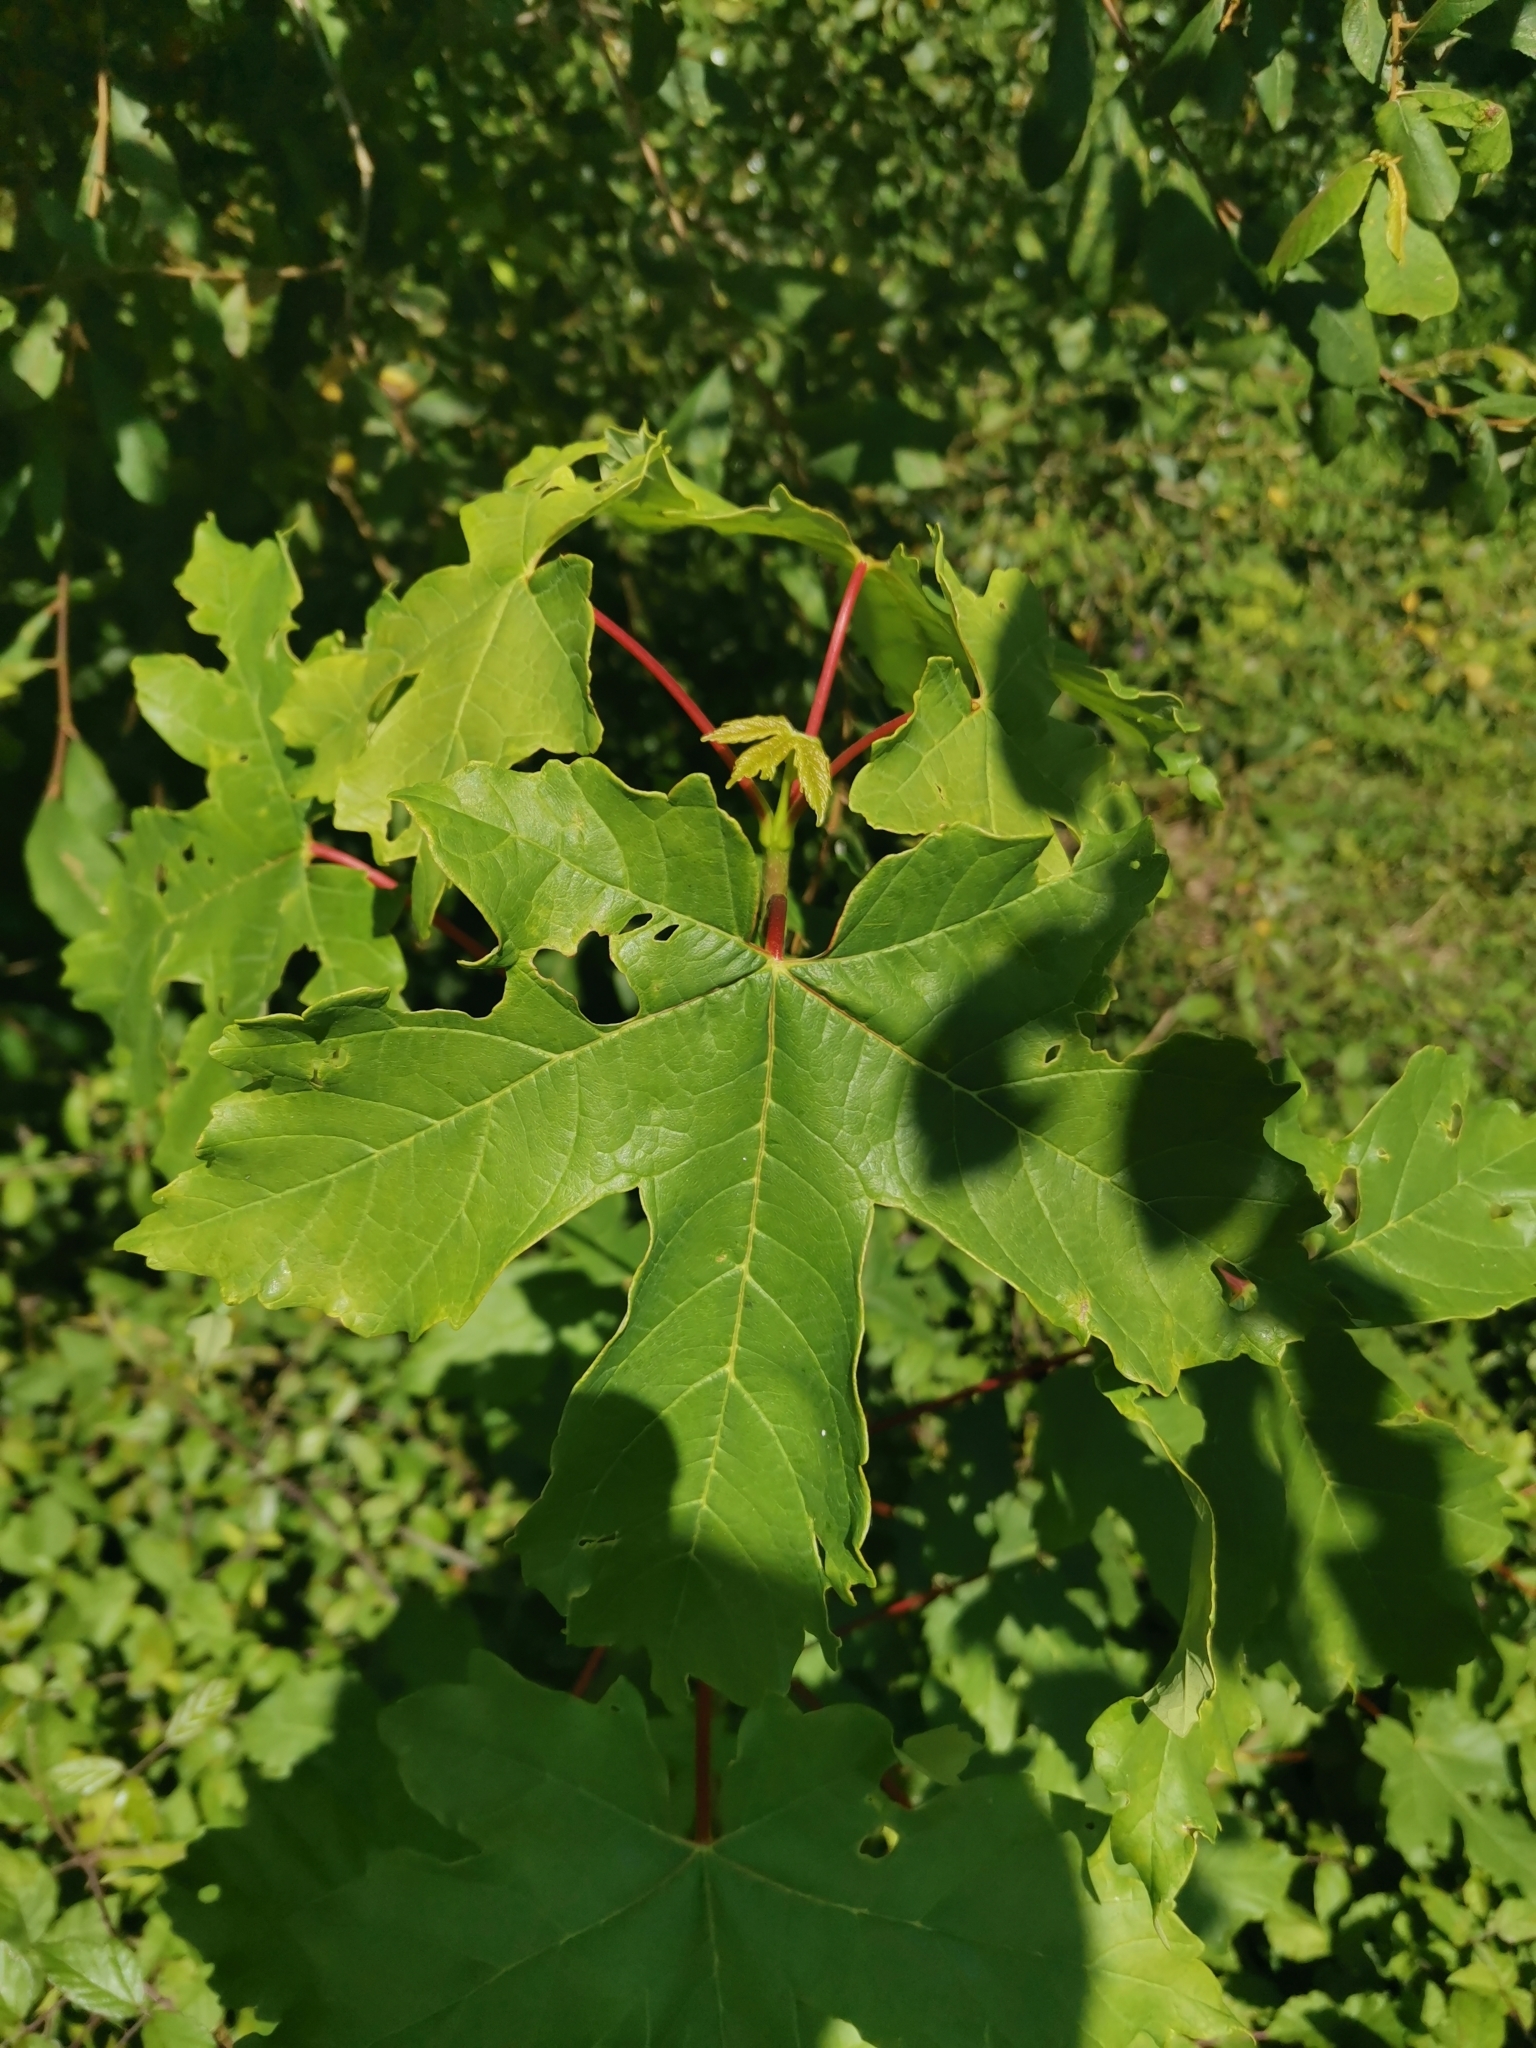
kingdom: Plantae
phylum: Tracheophyta
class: Magnoliopsida
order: Sapindales
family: Sapindaceae
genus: Acer
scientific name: Acer pseudoplatanus
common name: Sycamore
